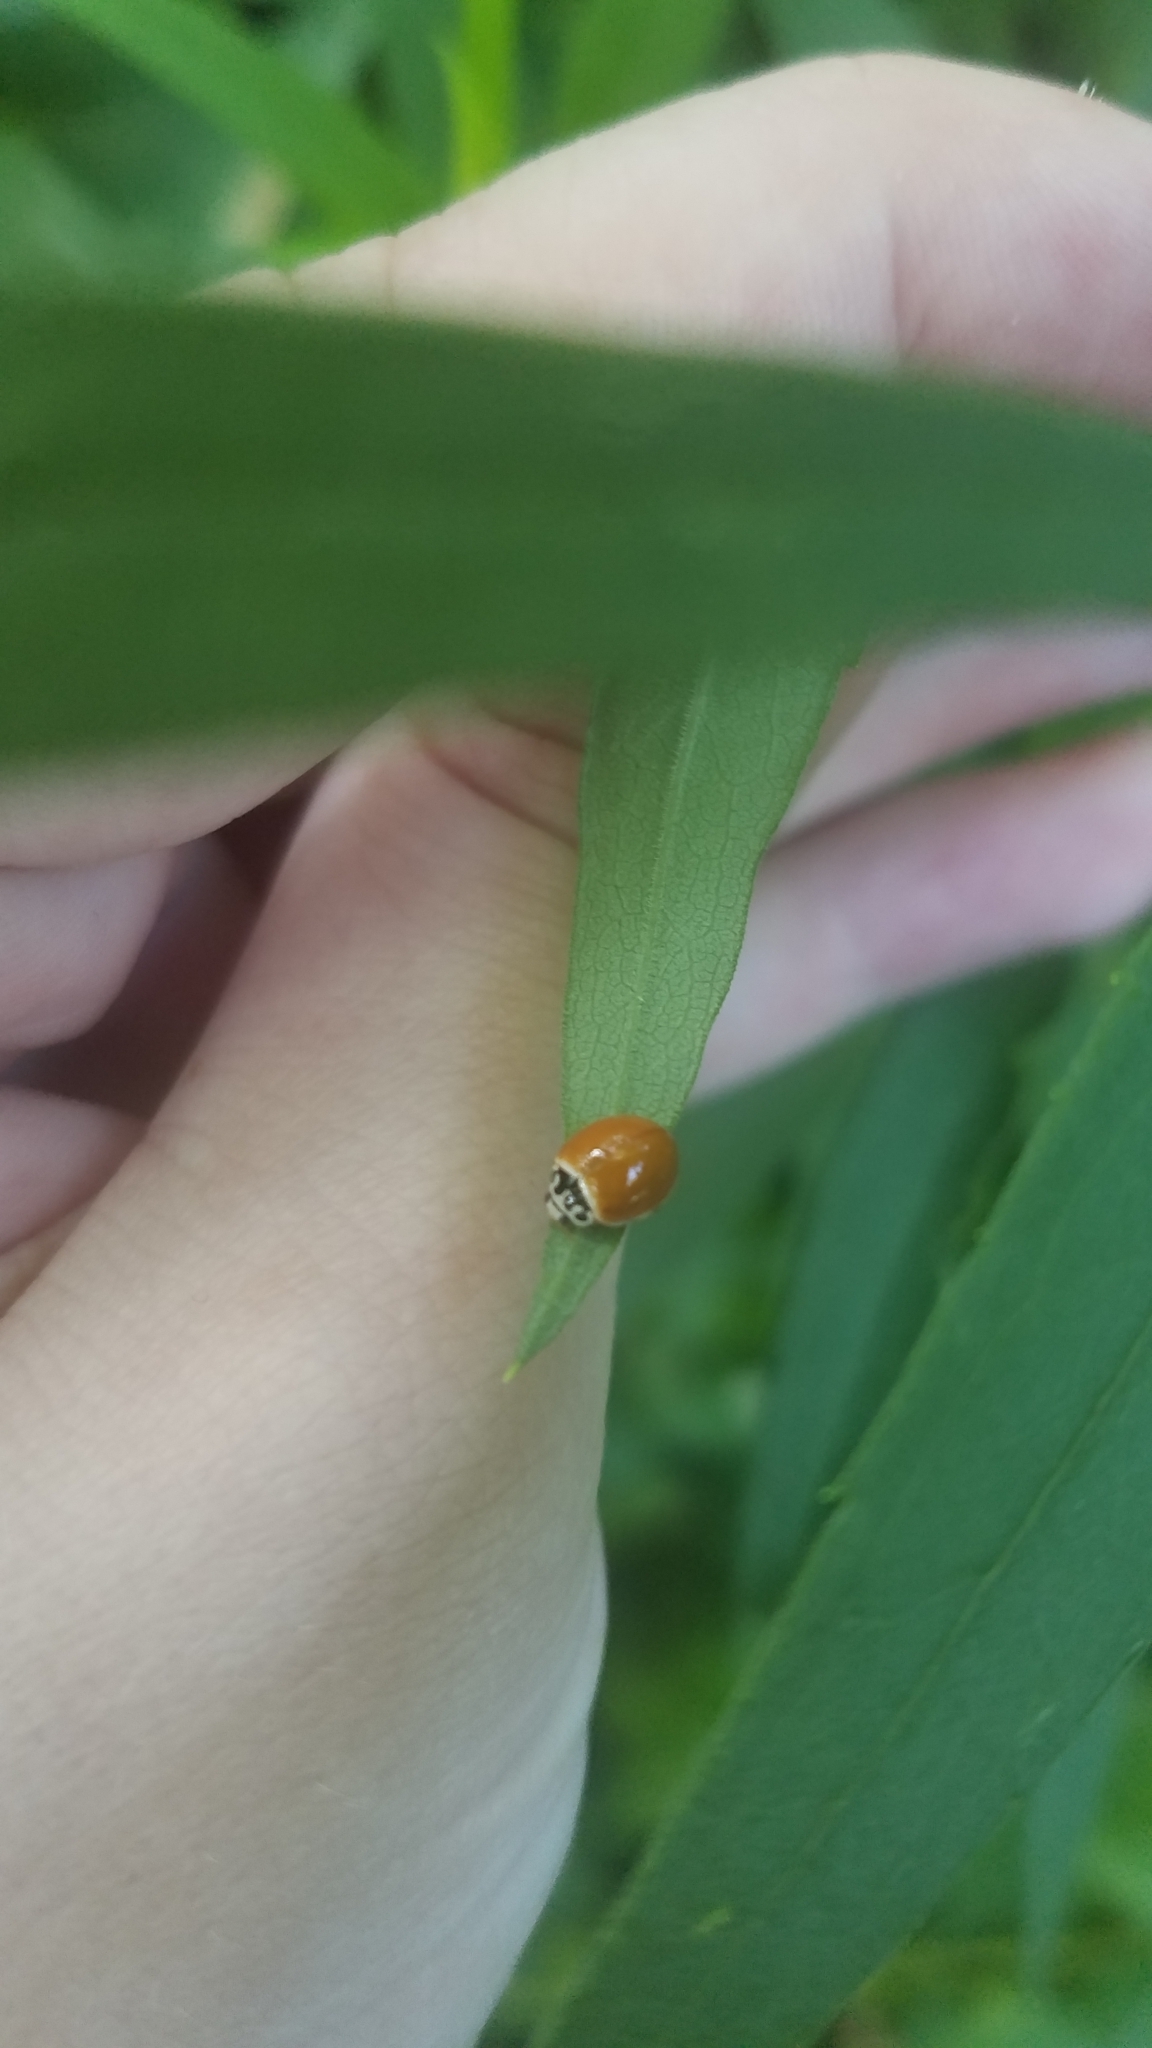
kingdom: Animalia
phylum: Arthropoda
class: Insecta
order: Coleoptera
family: Coccinellidae
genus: Cycloneda
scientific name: Cycloneda munda
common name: Polished lady beetle
